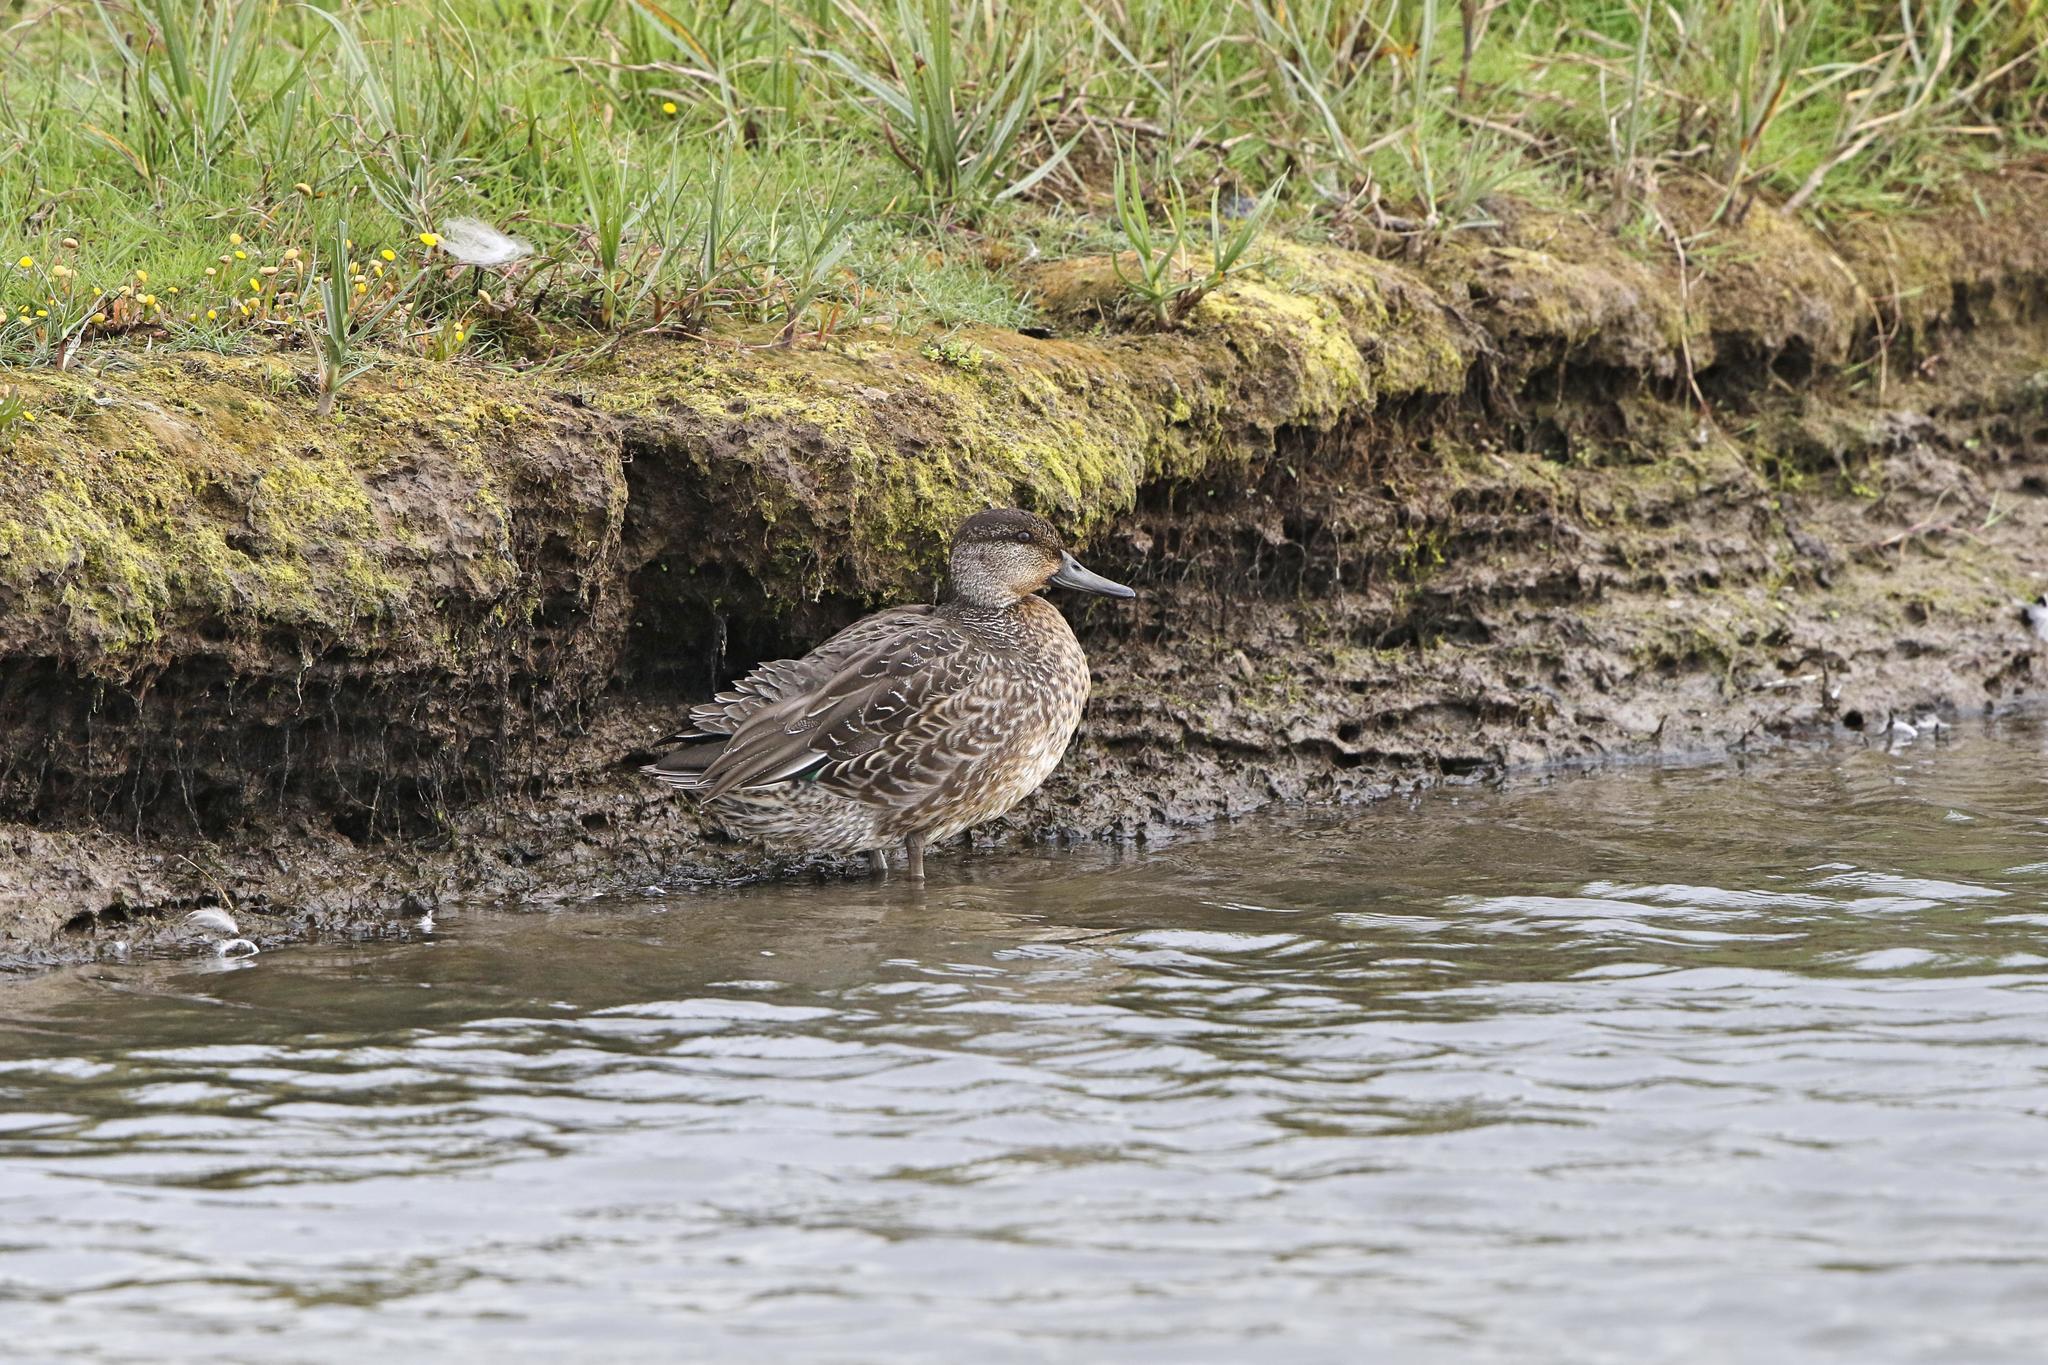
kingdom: Animalia
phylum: Chordata
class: Aves
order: Anseriformes
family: Anatidae
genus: Anas
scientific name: Anas crecca
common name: Eurasian teal
